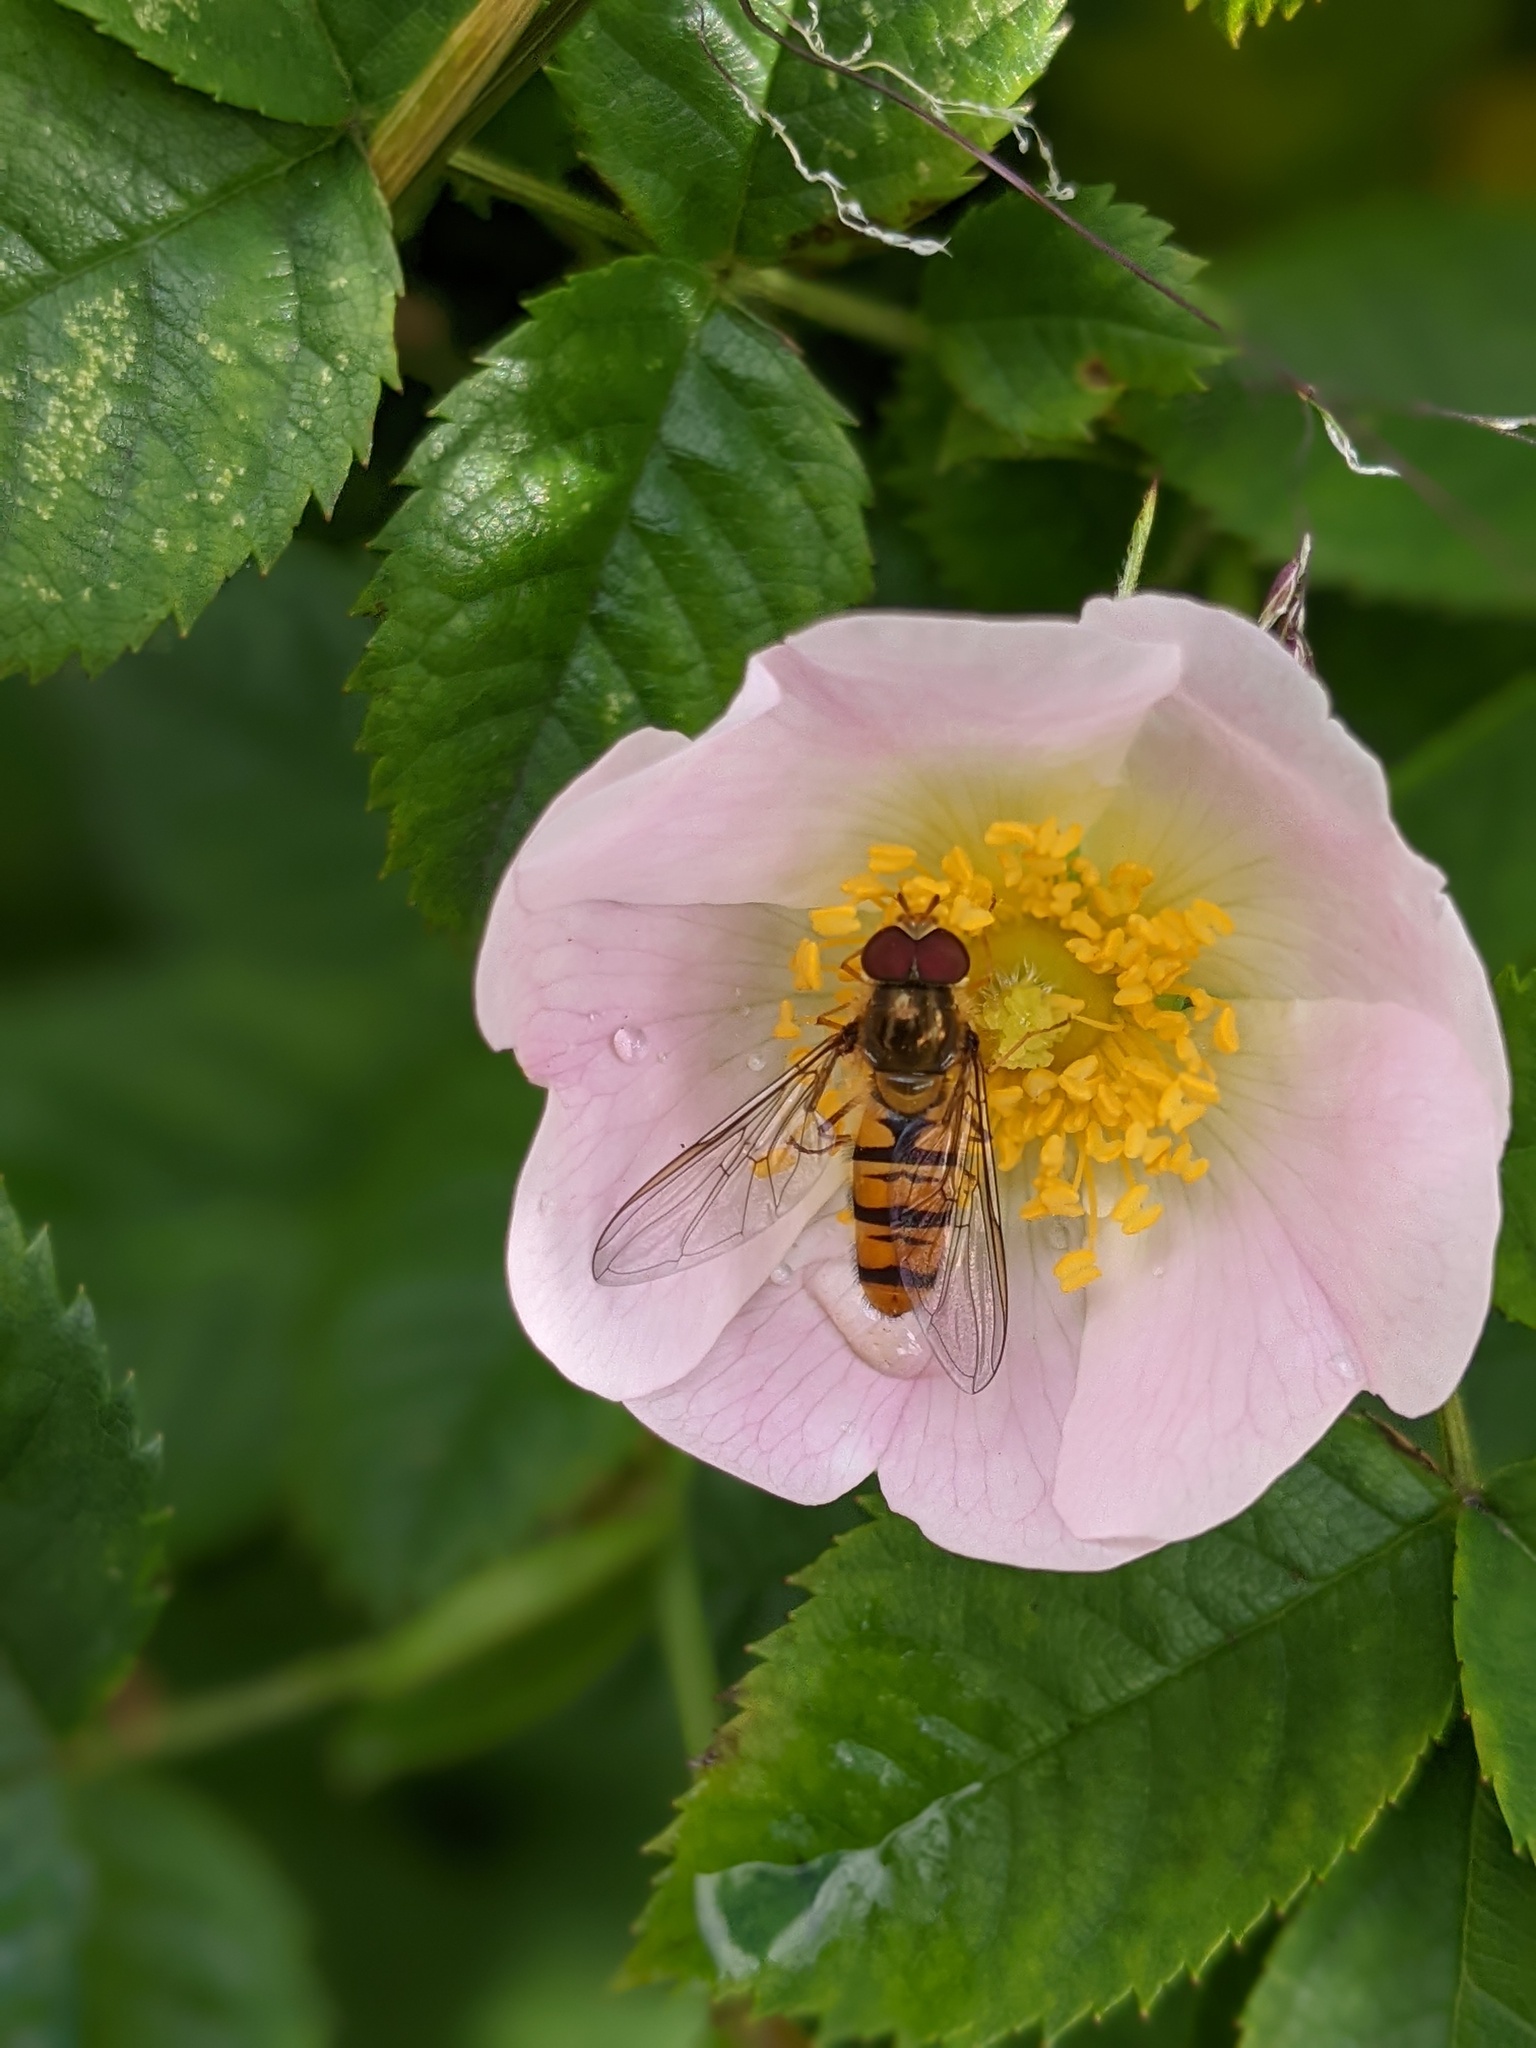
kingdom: Animalia
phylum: Arthropoda
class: Insecta
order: Diptera
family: Syrphidae
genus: Episyrphus
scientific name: Episyrphus balteatus
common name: Marmalade hoverfly
